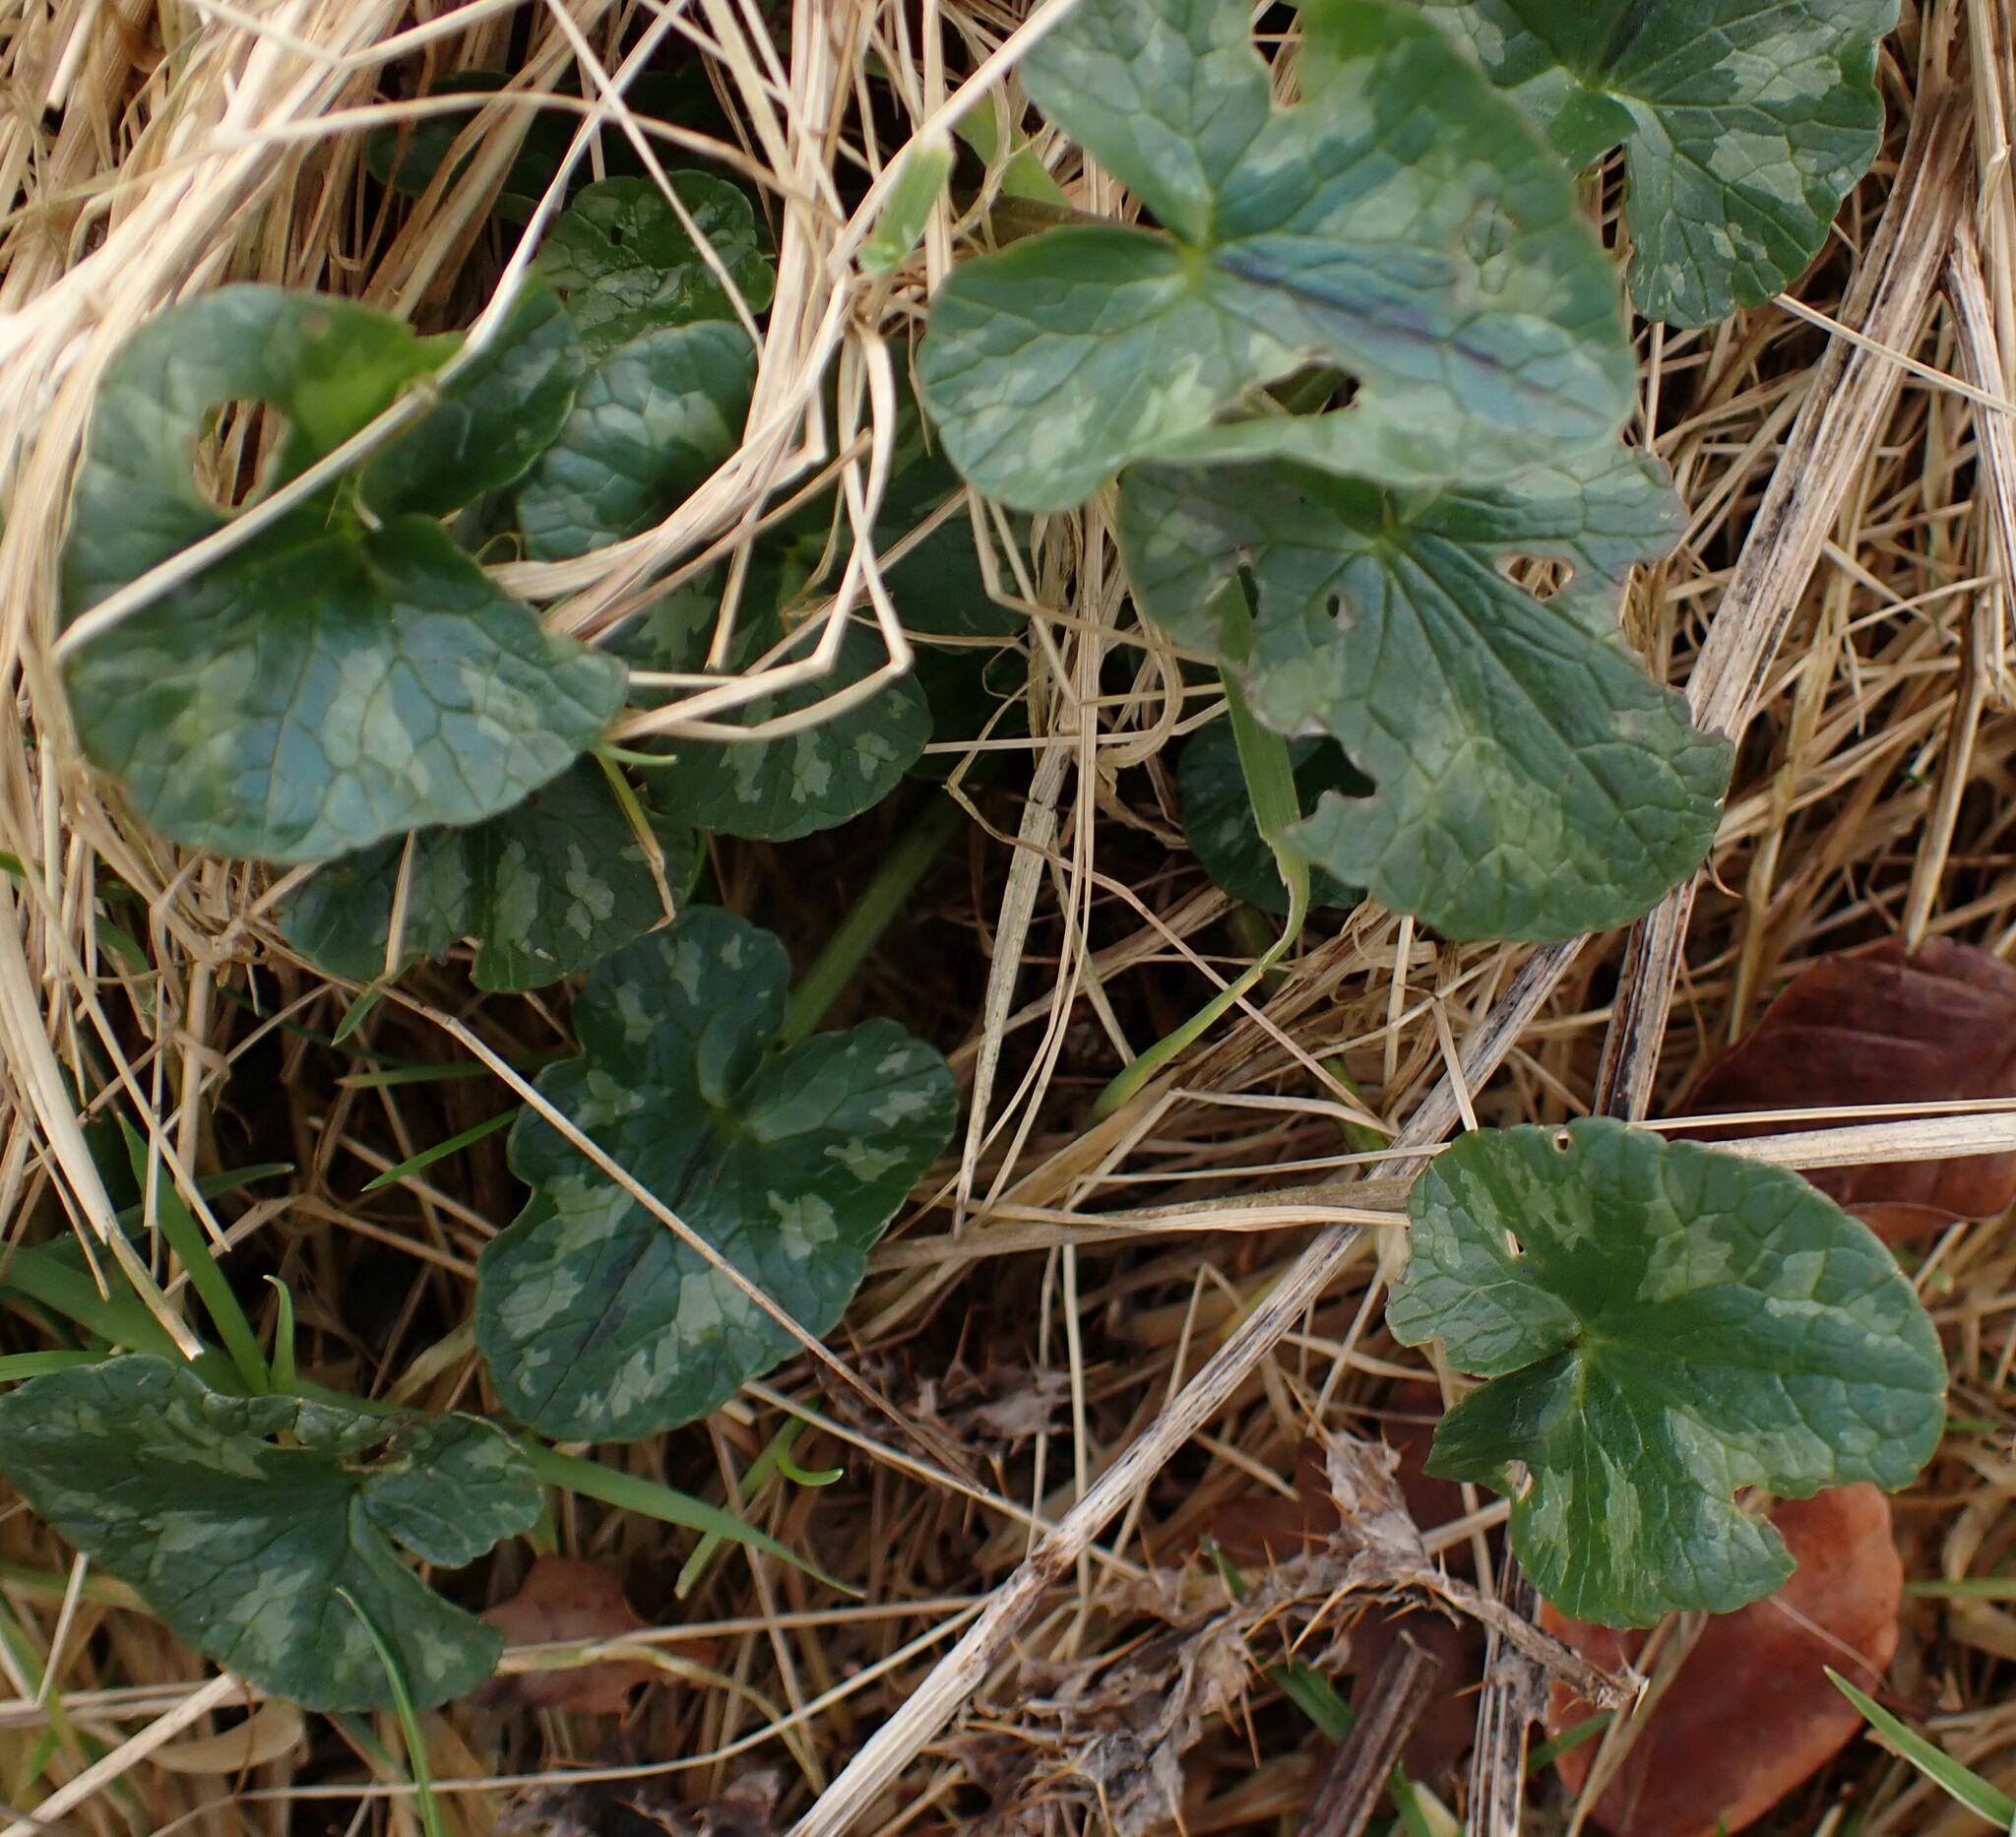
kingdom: Plantae
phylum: Tracheophyta
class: Magnoliopsida
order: Ranunculales
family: Ranunculaceae
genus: Ficaria
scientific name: Ficaria verna
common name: Lesser celandine
